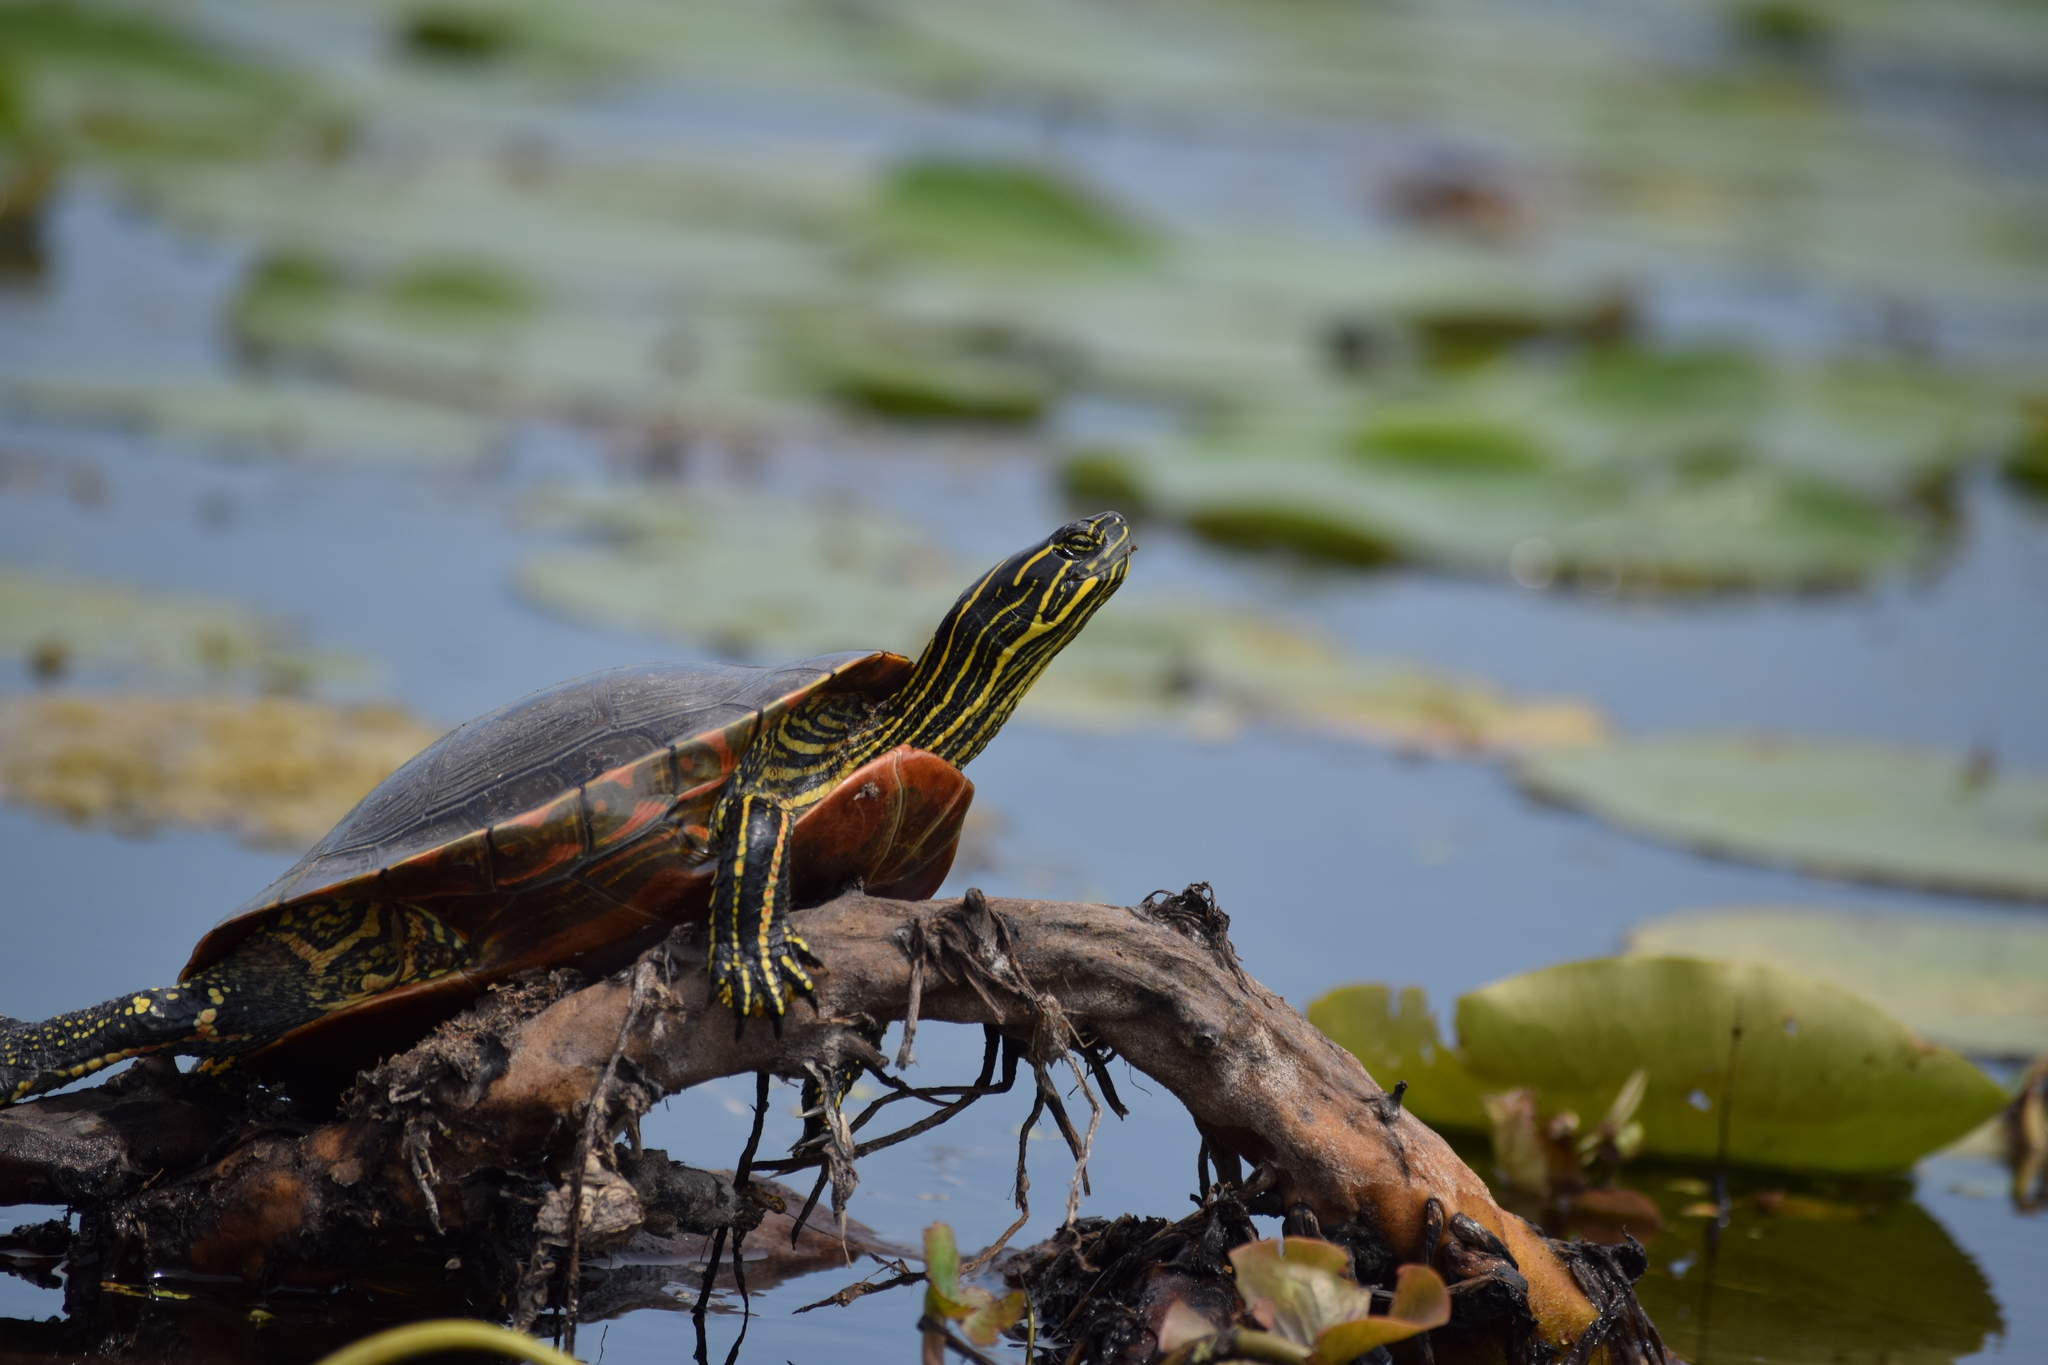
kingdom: Animalia
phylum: Chordata
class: Testudines
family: Emydidae
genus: Chrysemys
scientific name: Chrysemys picta
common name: Painted turtle
